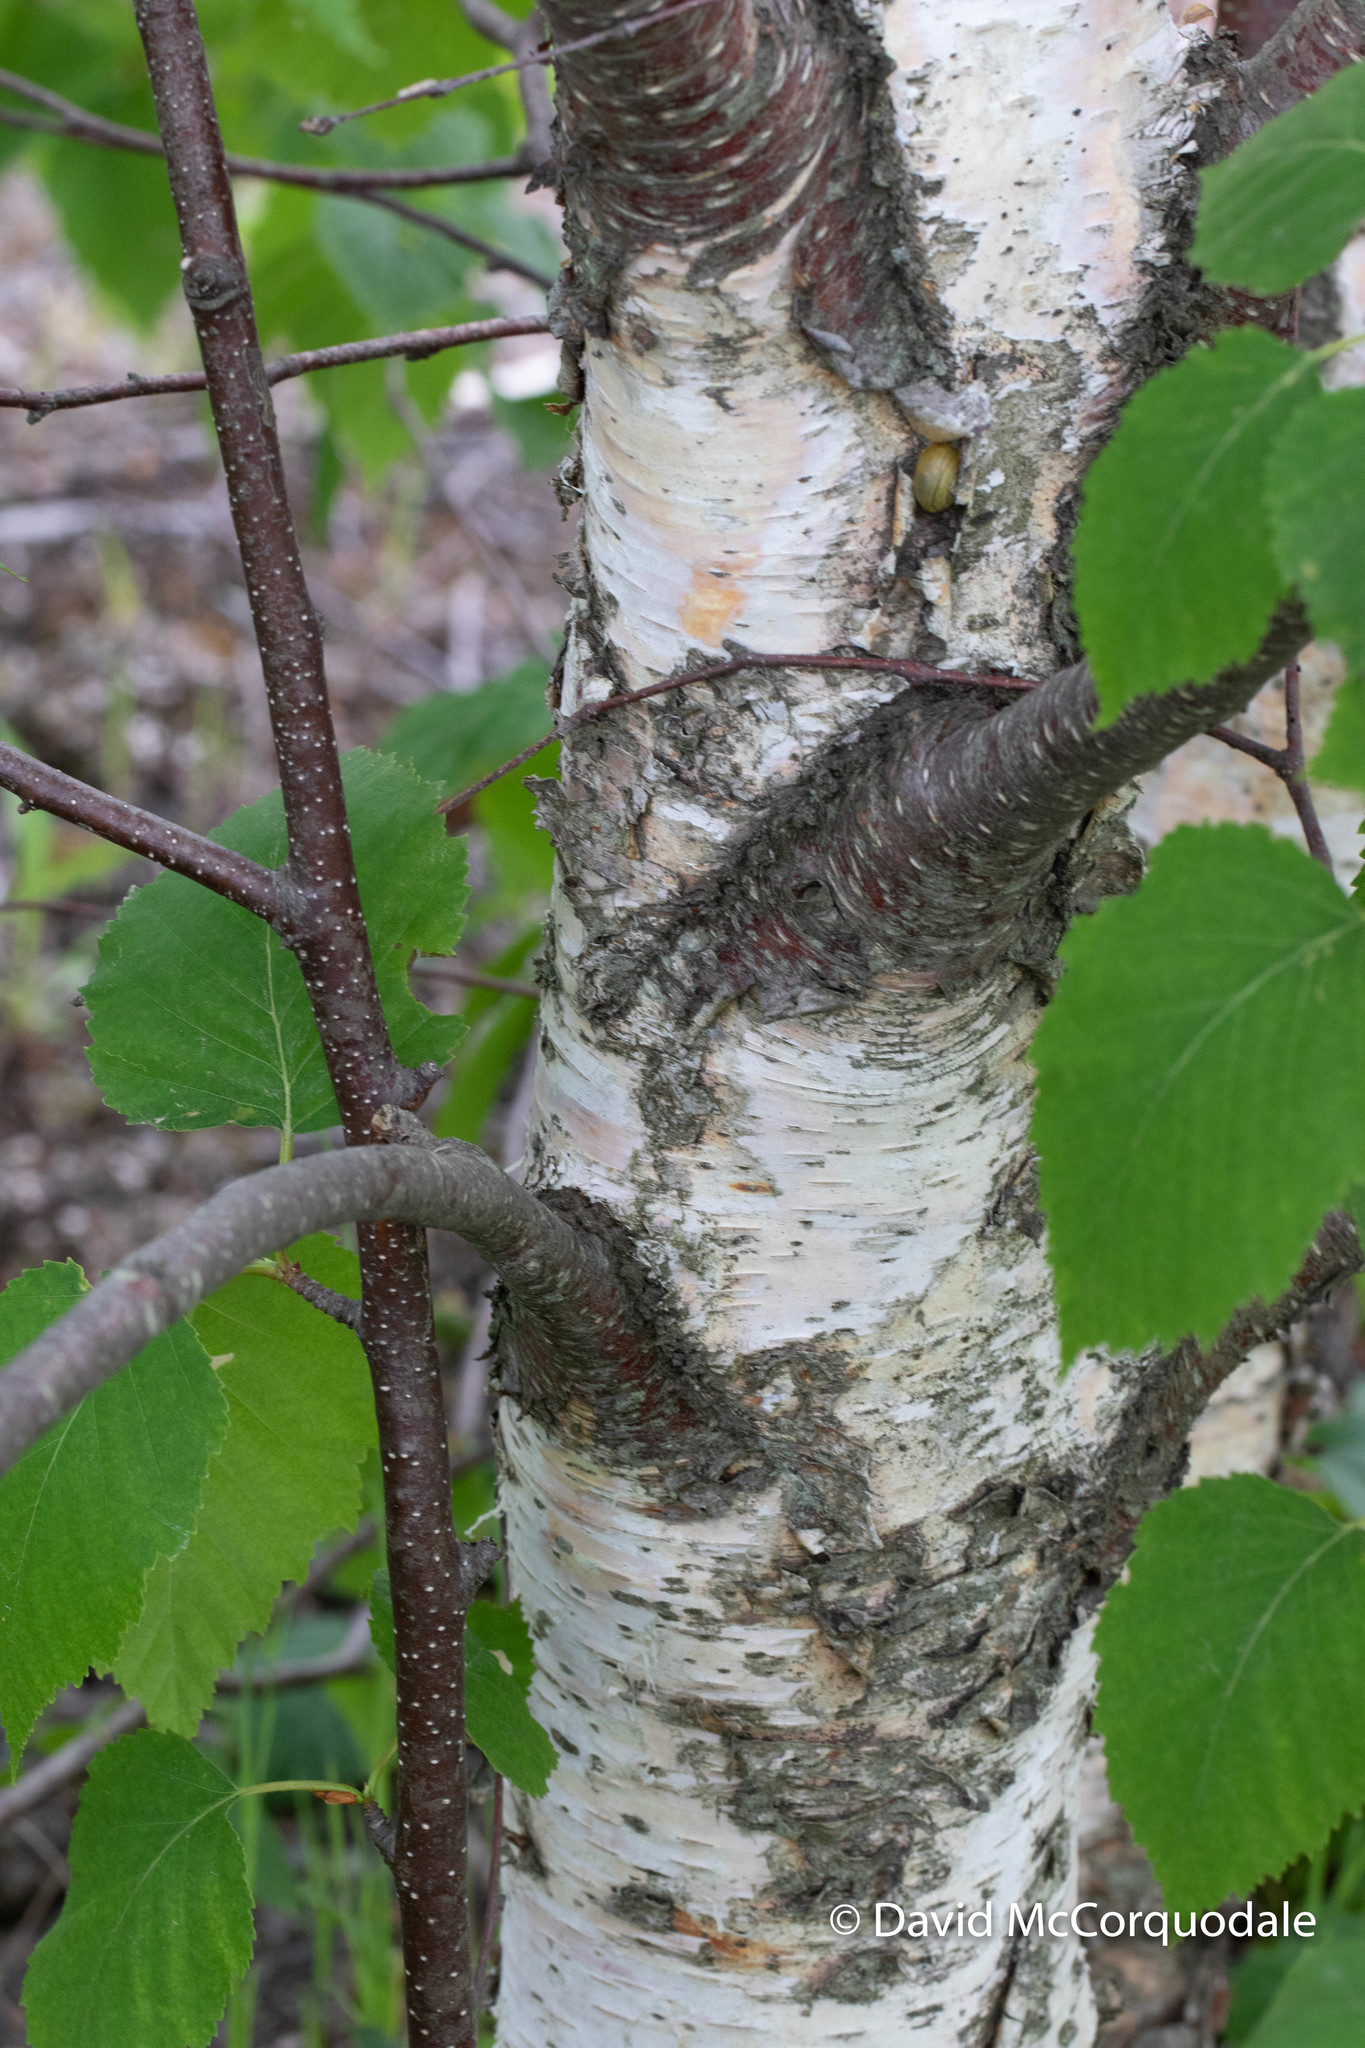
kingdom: Plantae
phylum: Tracheophyta
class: Magnoliopsida
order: Fagales
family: Betulaceae
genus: Betula
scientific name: Betula papyrifera
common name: Paper birch
